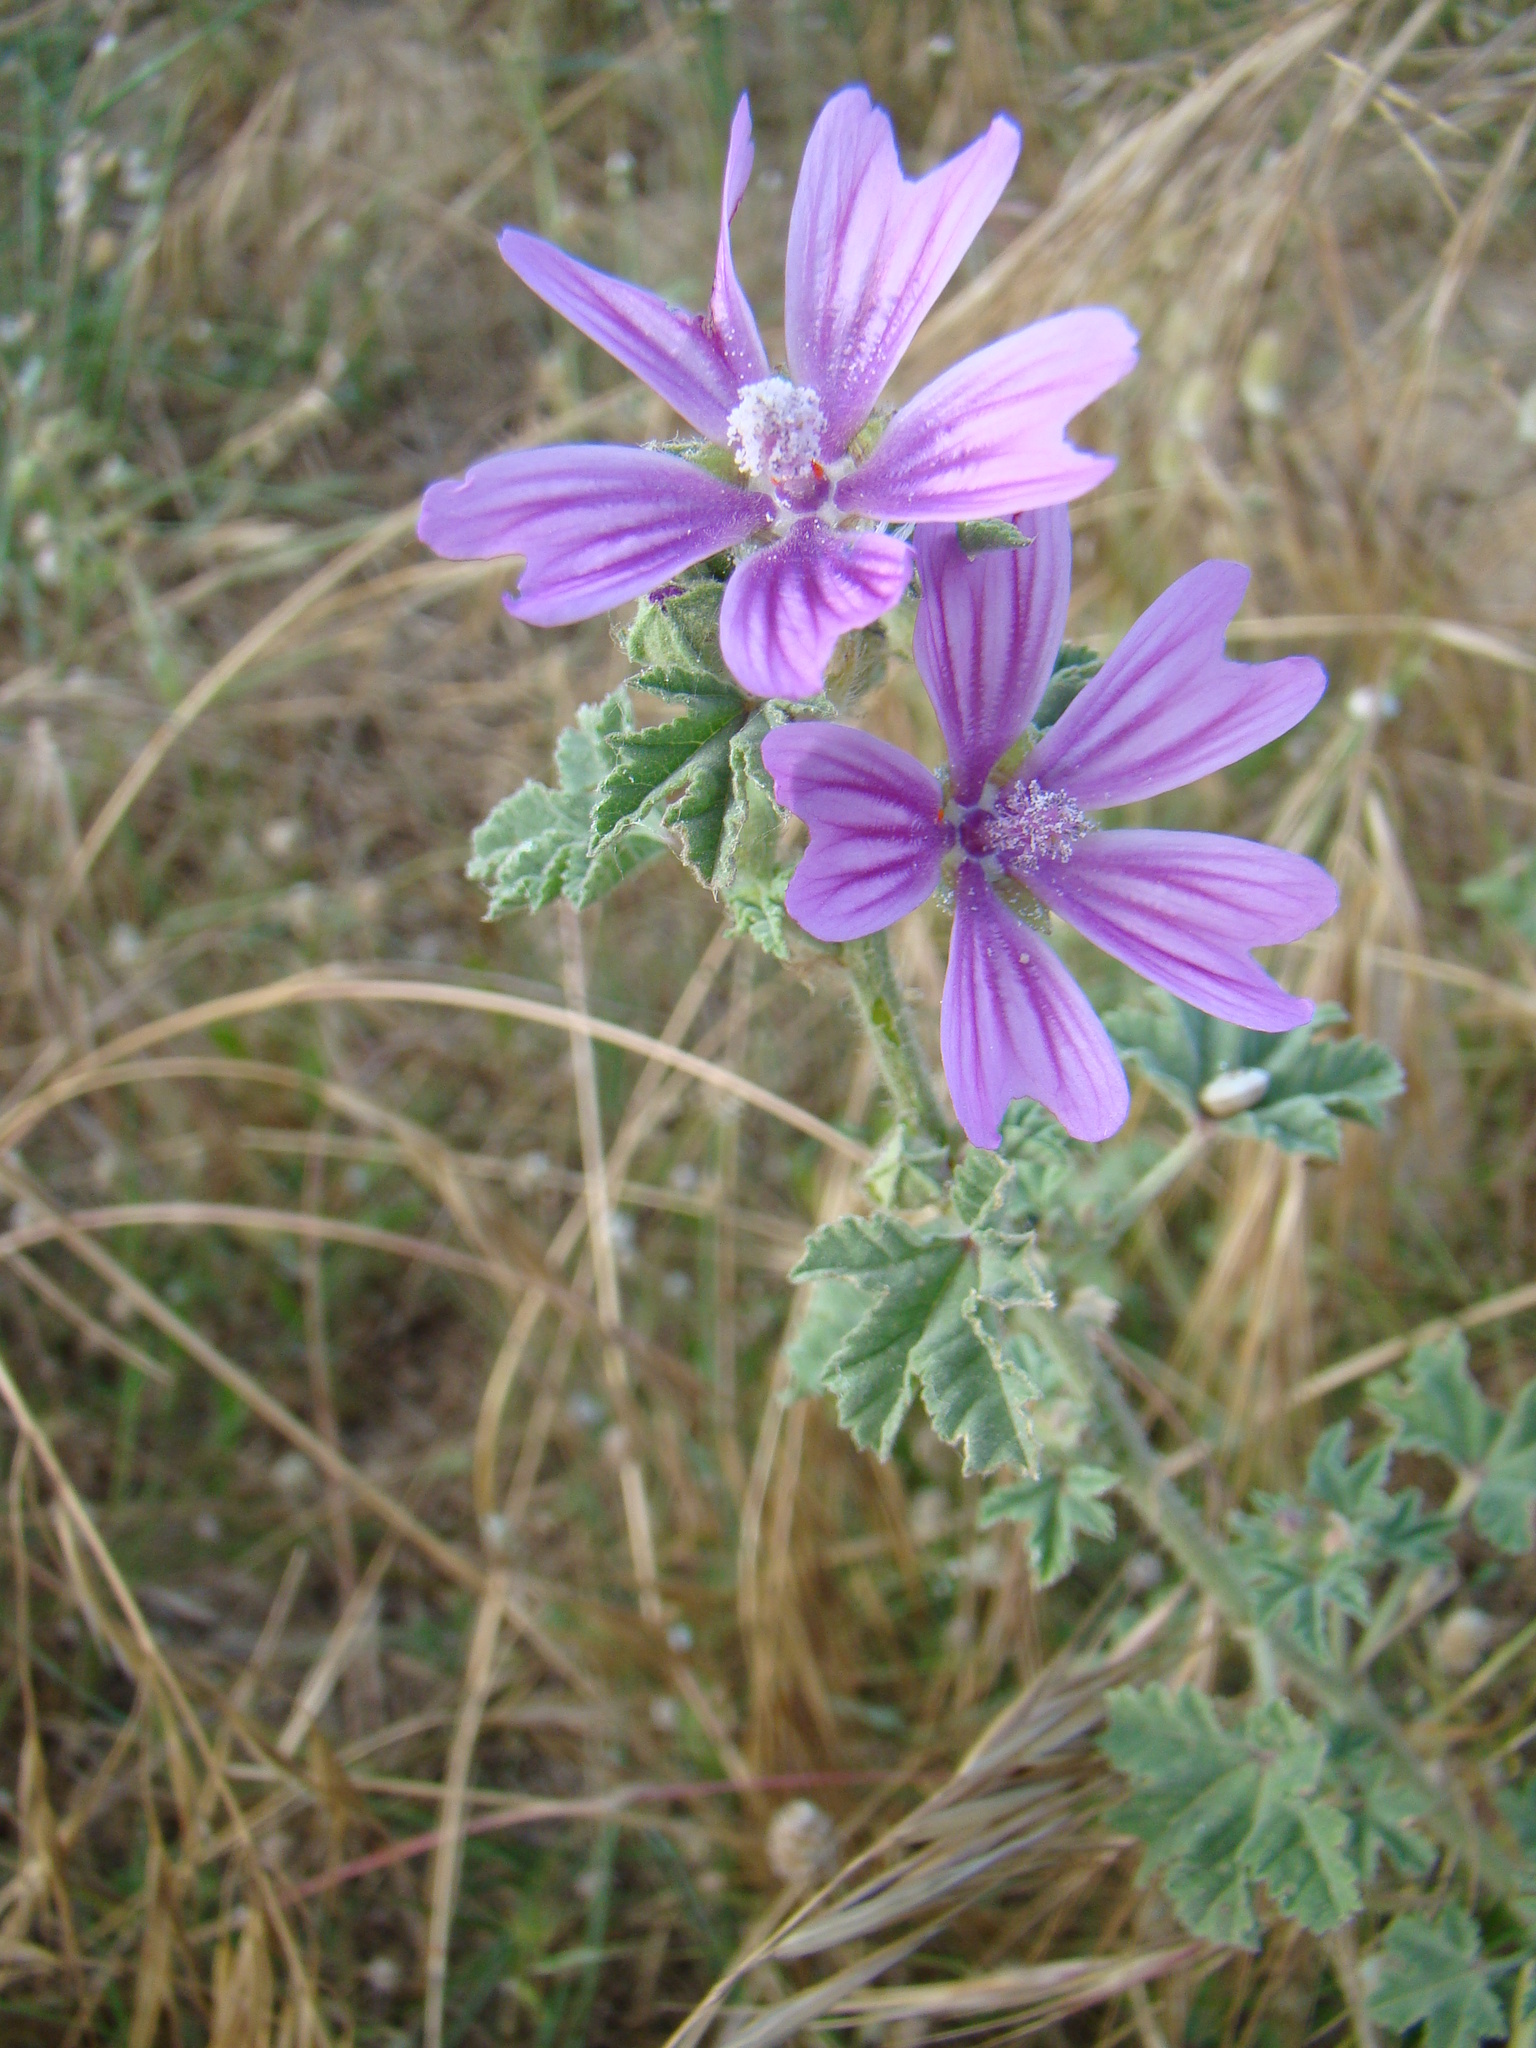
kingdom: Plantae
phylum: Tracheophyta
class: Magnoliopsida
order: Malvales
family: Malvaceae
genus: Malva
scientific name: Malva sylvestris
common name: Common mallow
